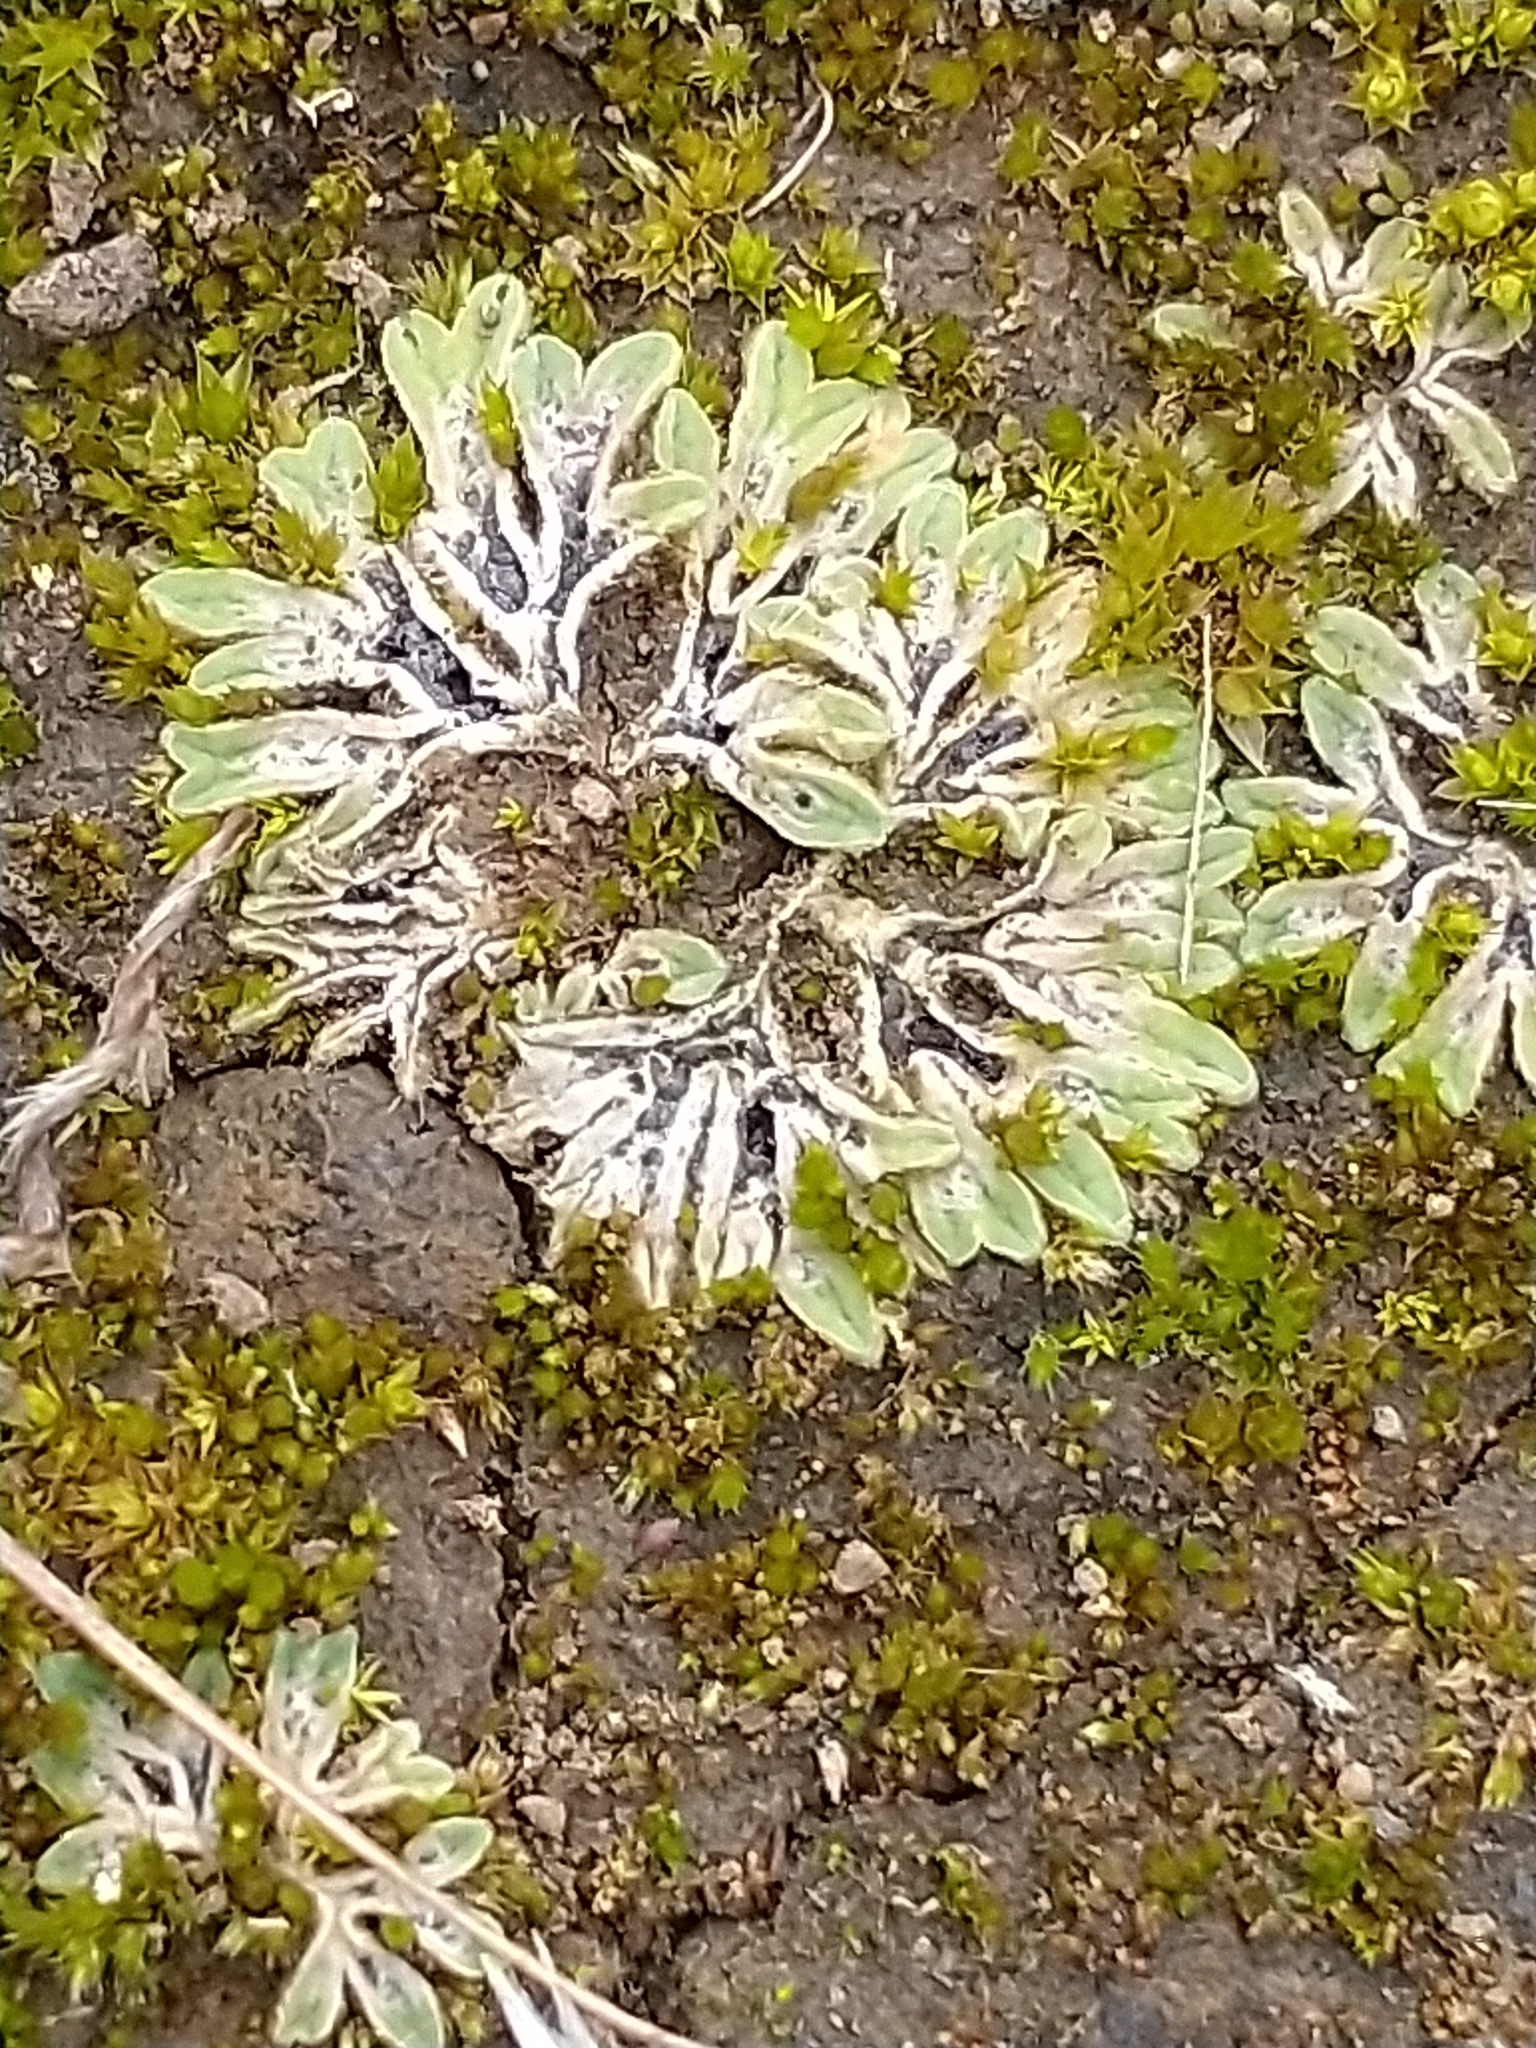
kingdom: Plantae
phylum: Marchantiophyta
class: Marchantiopsida
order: Marchantiales
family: Ricciaceae
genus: Riccia
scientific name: Riccia sorocarpa
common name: Common crystalwort
